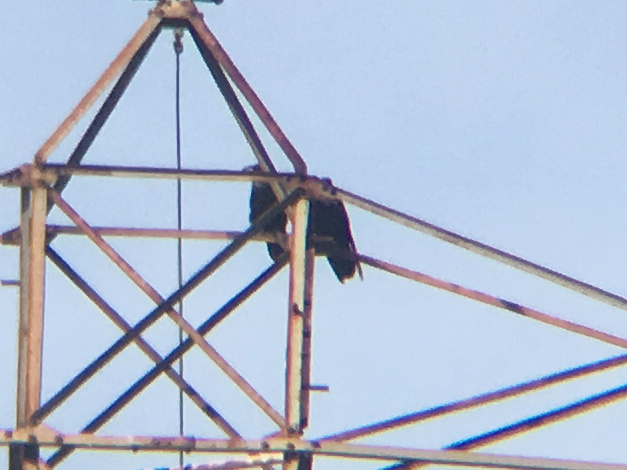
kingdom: Animalia
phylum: Chordata
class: Aves
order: Passeriformes
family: Corvidae
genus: Corvus
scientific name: Corvus brachyrhynchos
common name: American crow
